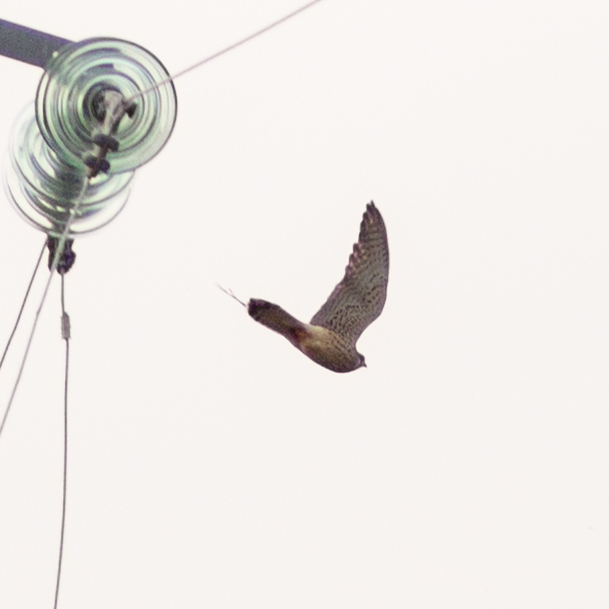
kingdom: Animalia
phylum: Chordata
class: Aves
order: Falconiformes
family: Falconidae
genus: Falco
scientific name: Falco tinnunculus
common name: Common kestrel
